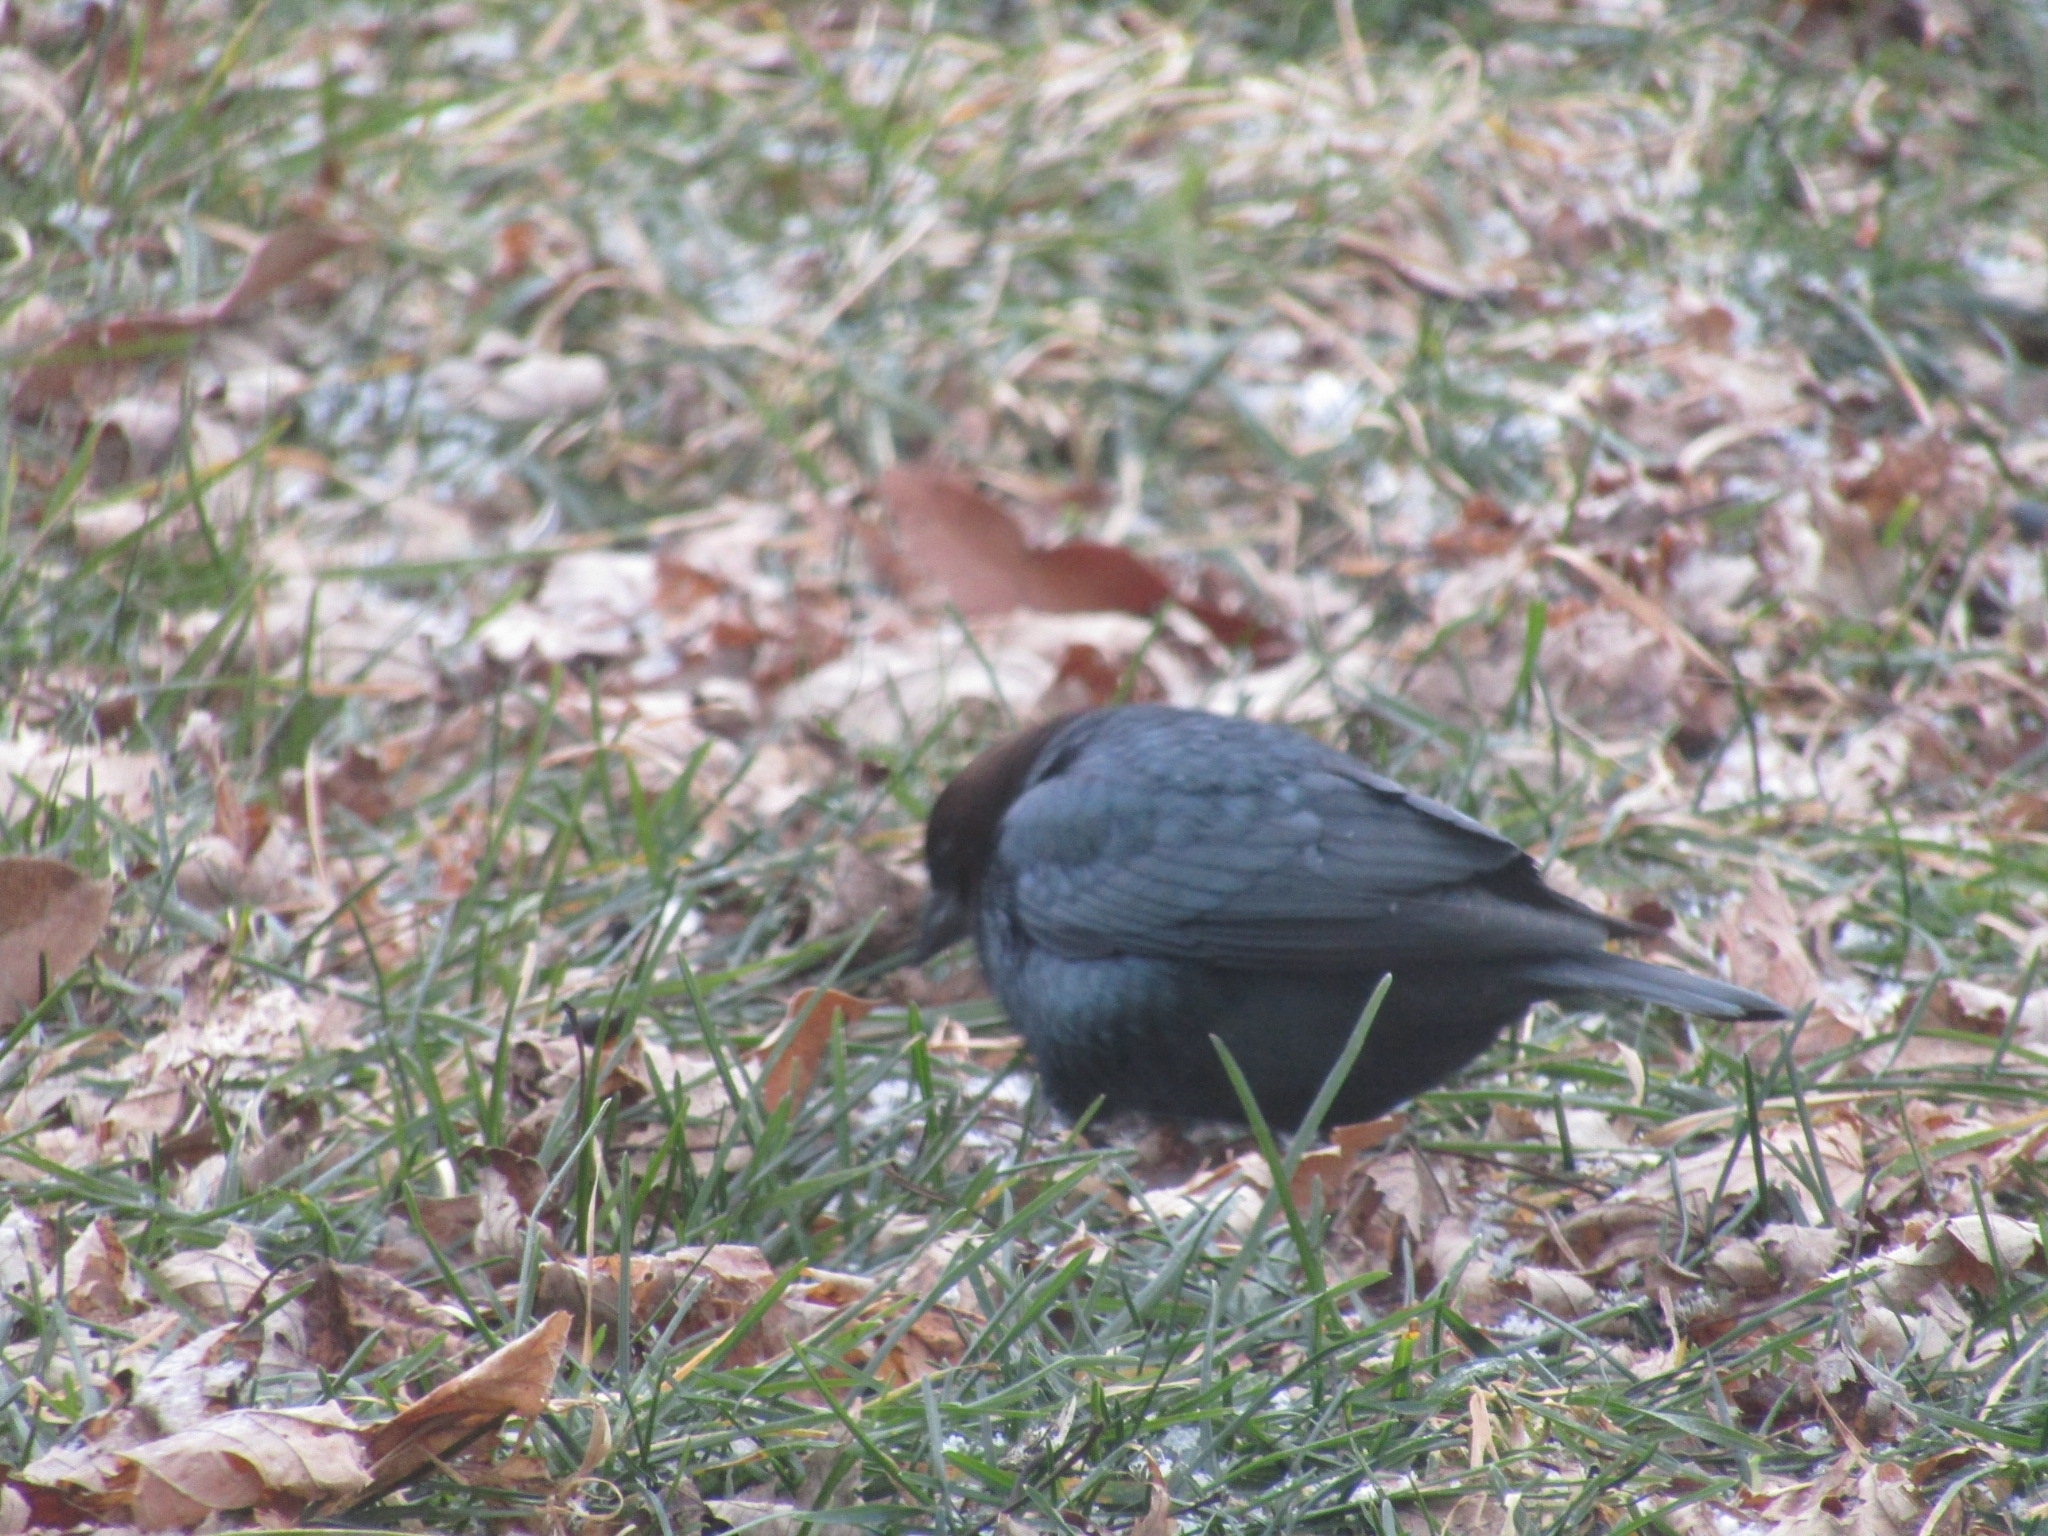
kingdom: Animalia
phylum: Chordata
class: Aves
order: Passeriformes
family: Icteridae
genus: Molothrus
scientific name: Molothrus ater
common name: Brown-headed cowbird
